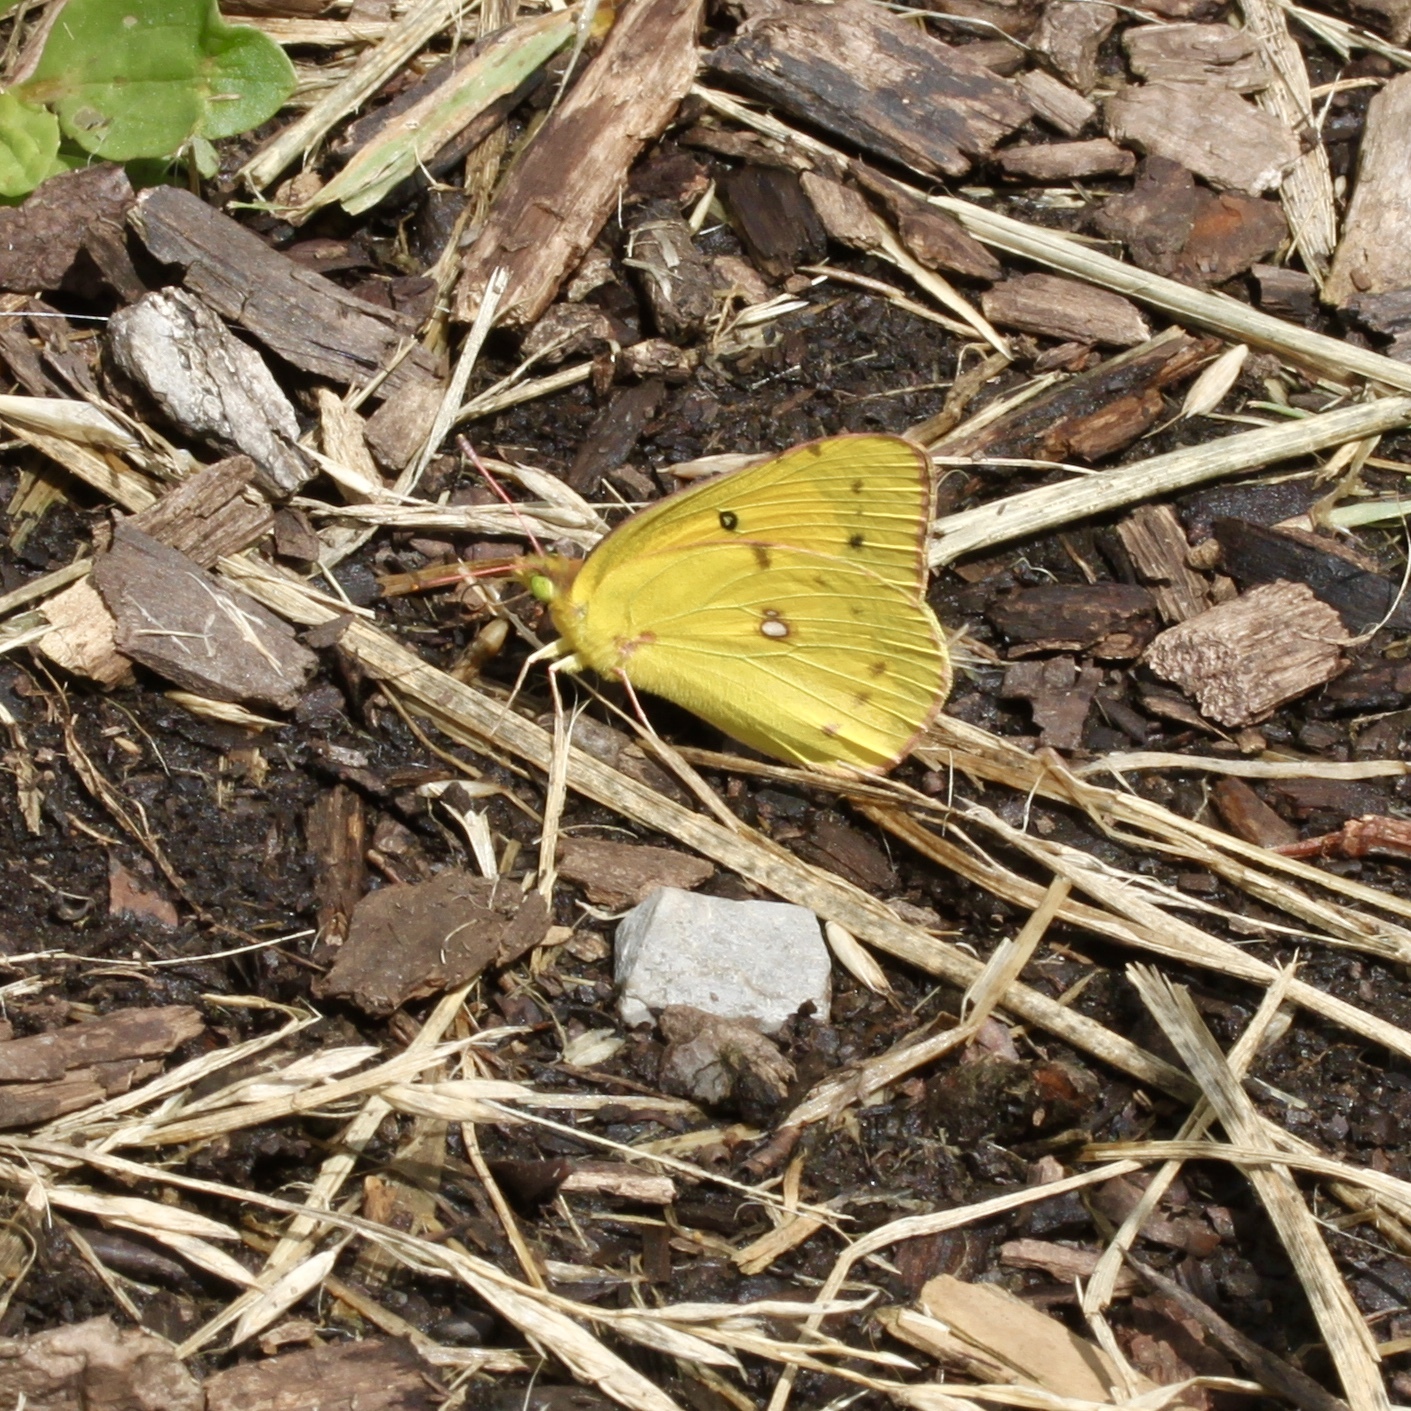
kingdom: Animalia
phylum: Arthropoda
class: Insecta
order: Lepidoptera
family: Pieridae
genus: Colias
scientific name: Colias eurytheme
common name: Alfalfa butterfly
